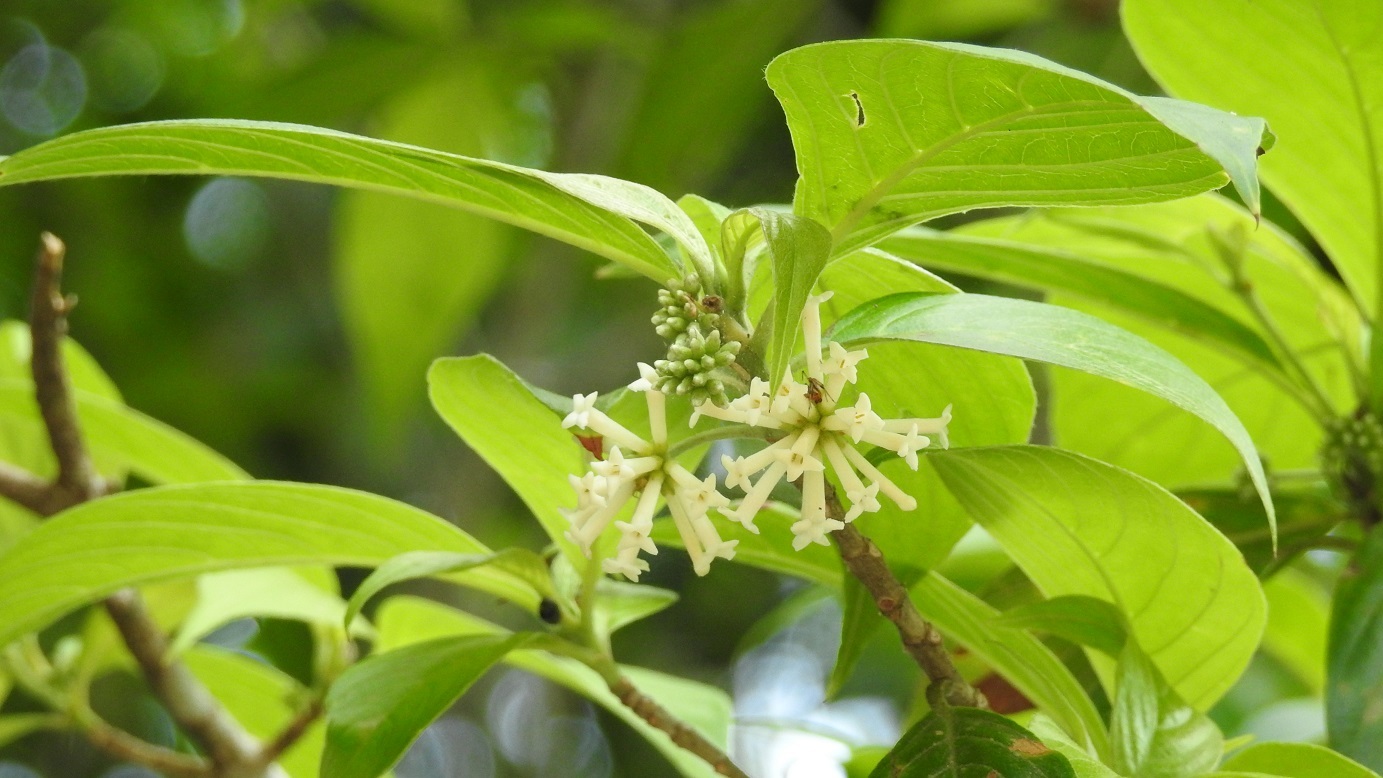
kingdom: Plantae
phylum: Tracheophyta
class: Magnoliopsida
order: Gentianales
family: Rubiaceae
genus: Arachnothryx
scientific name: Arachnothryx chiapensis
